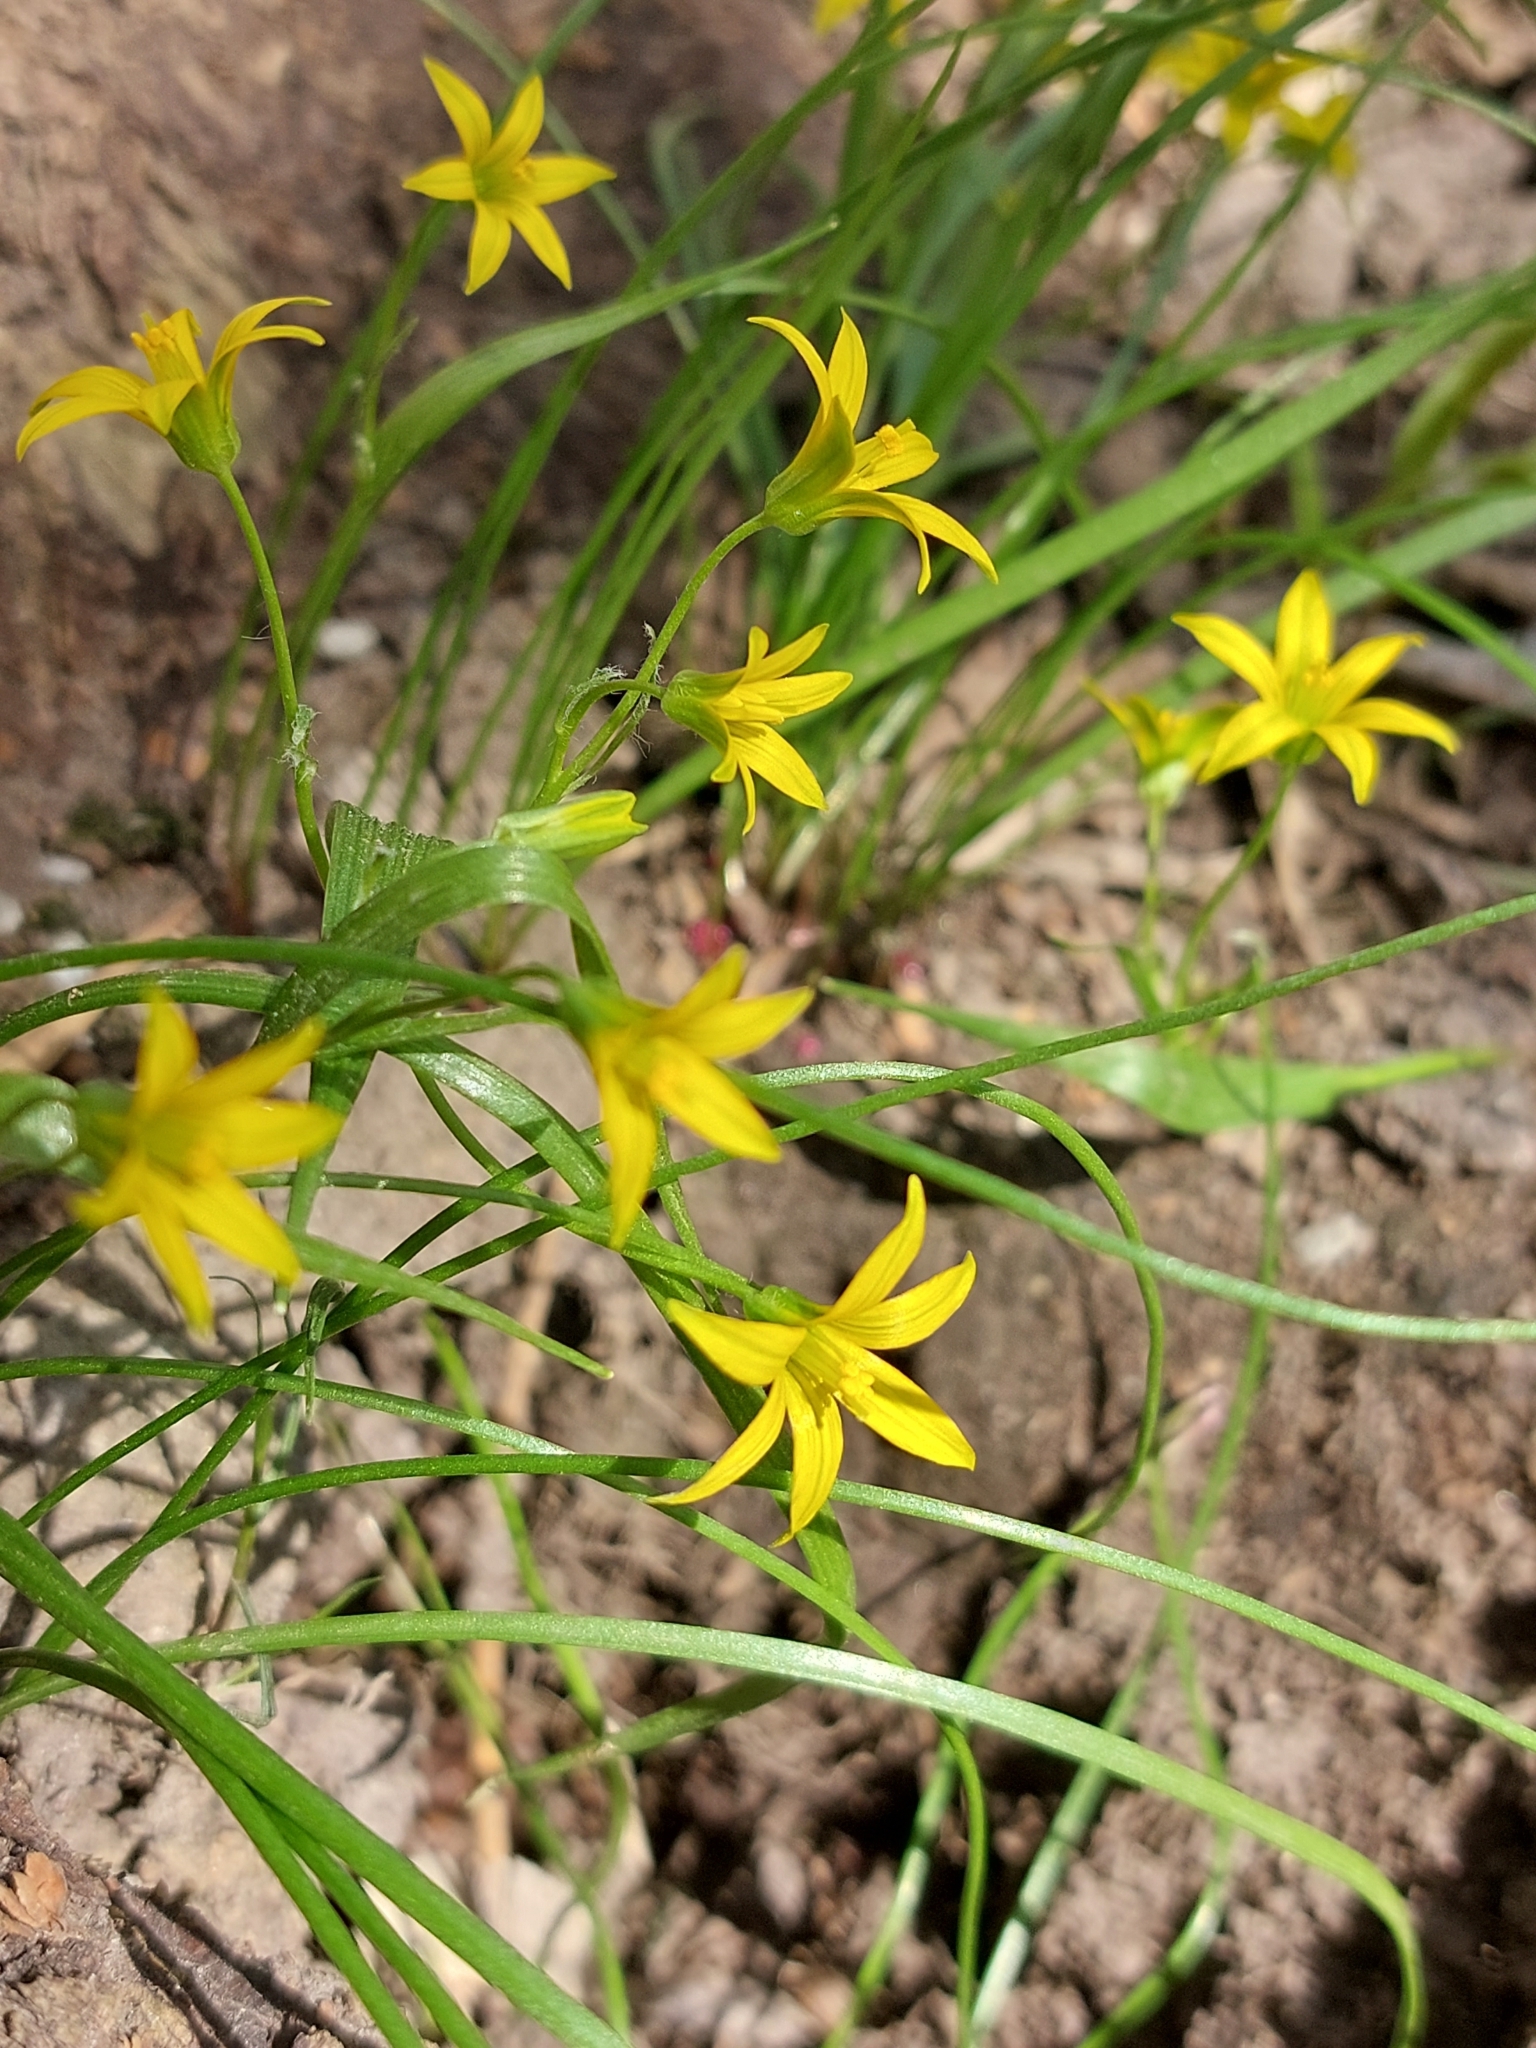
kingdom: Plantae
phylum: Tracheophyta
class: Liliopsida
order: Liliales
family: Liliaceae
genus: Gagea
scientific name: Gagea minima
